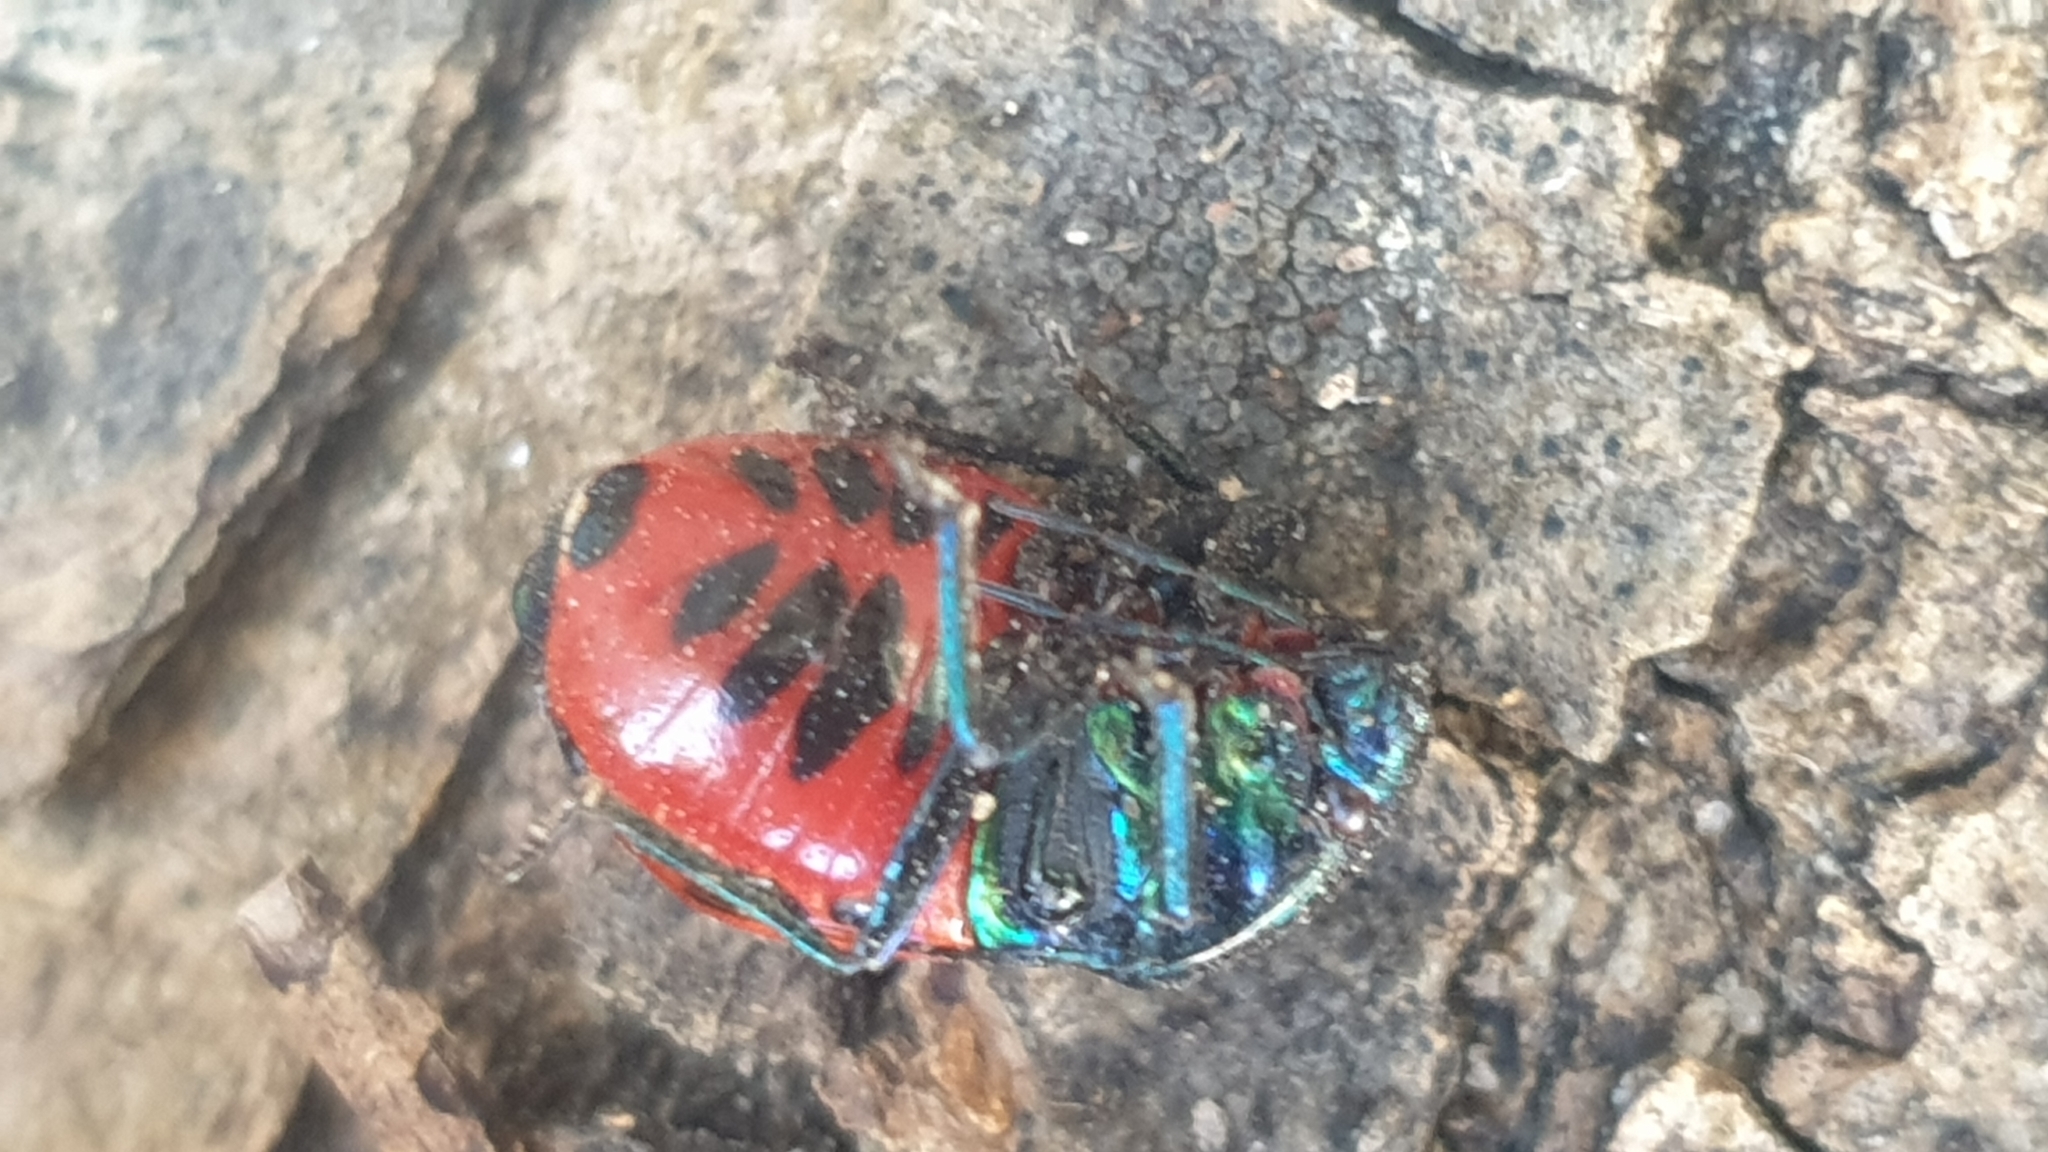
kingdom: Animalia
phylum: Arthropoda
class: Insecta
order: Hemiptera
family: Scutelleridae
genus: Choerocoris
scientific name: Choerocoris paganus
